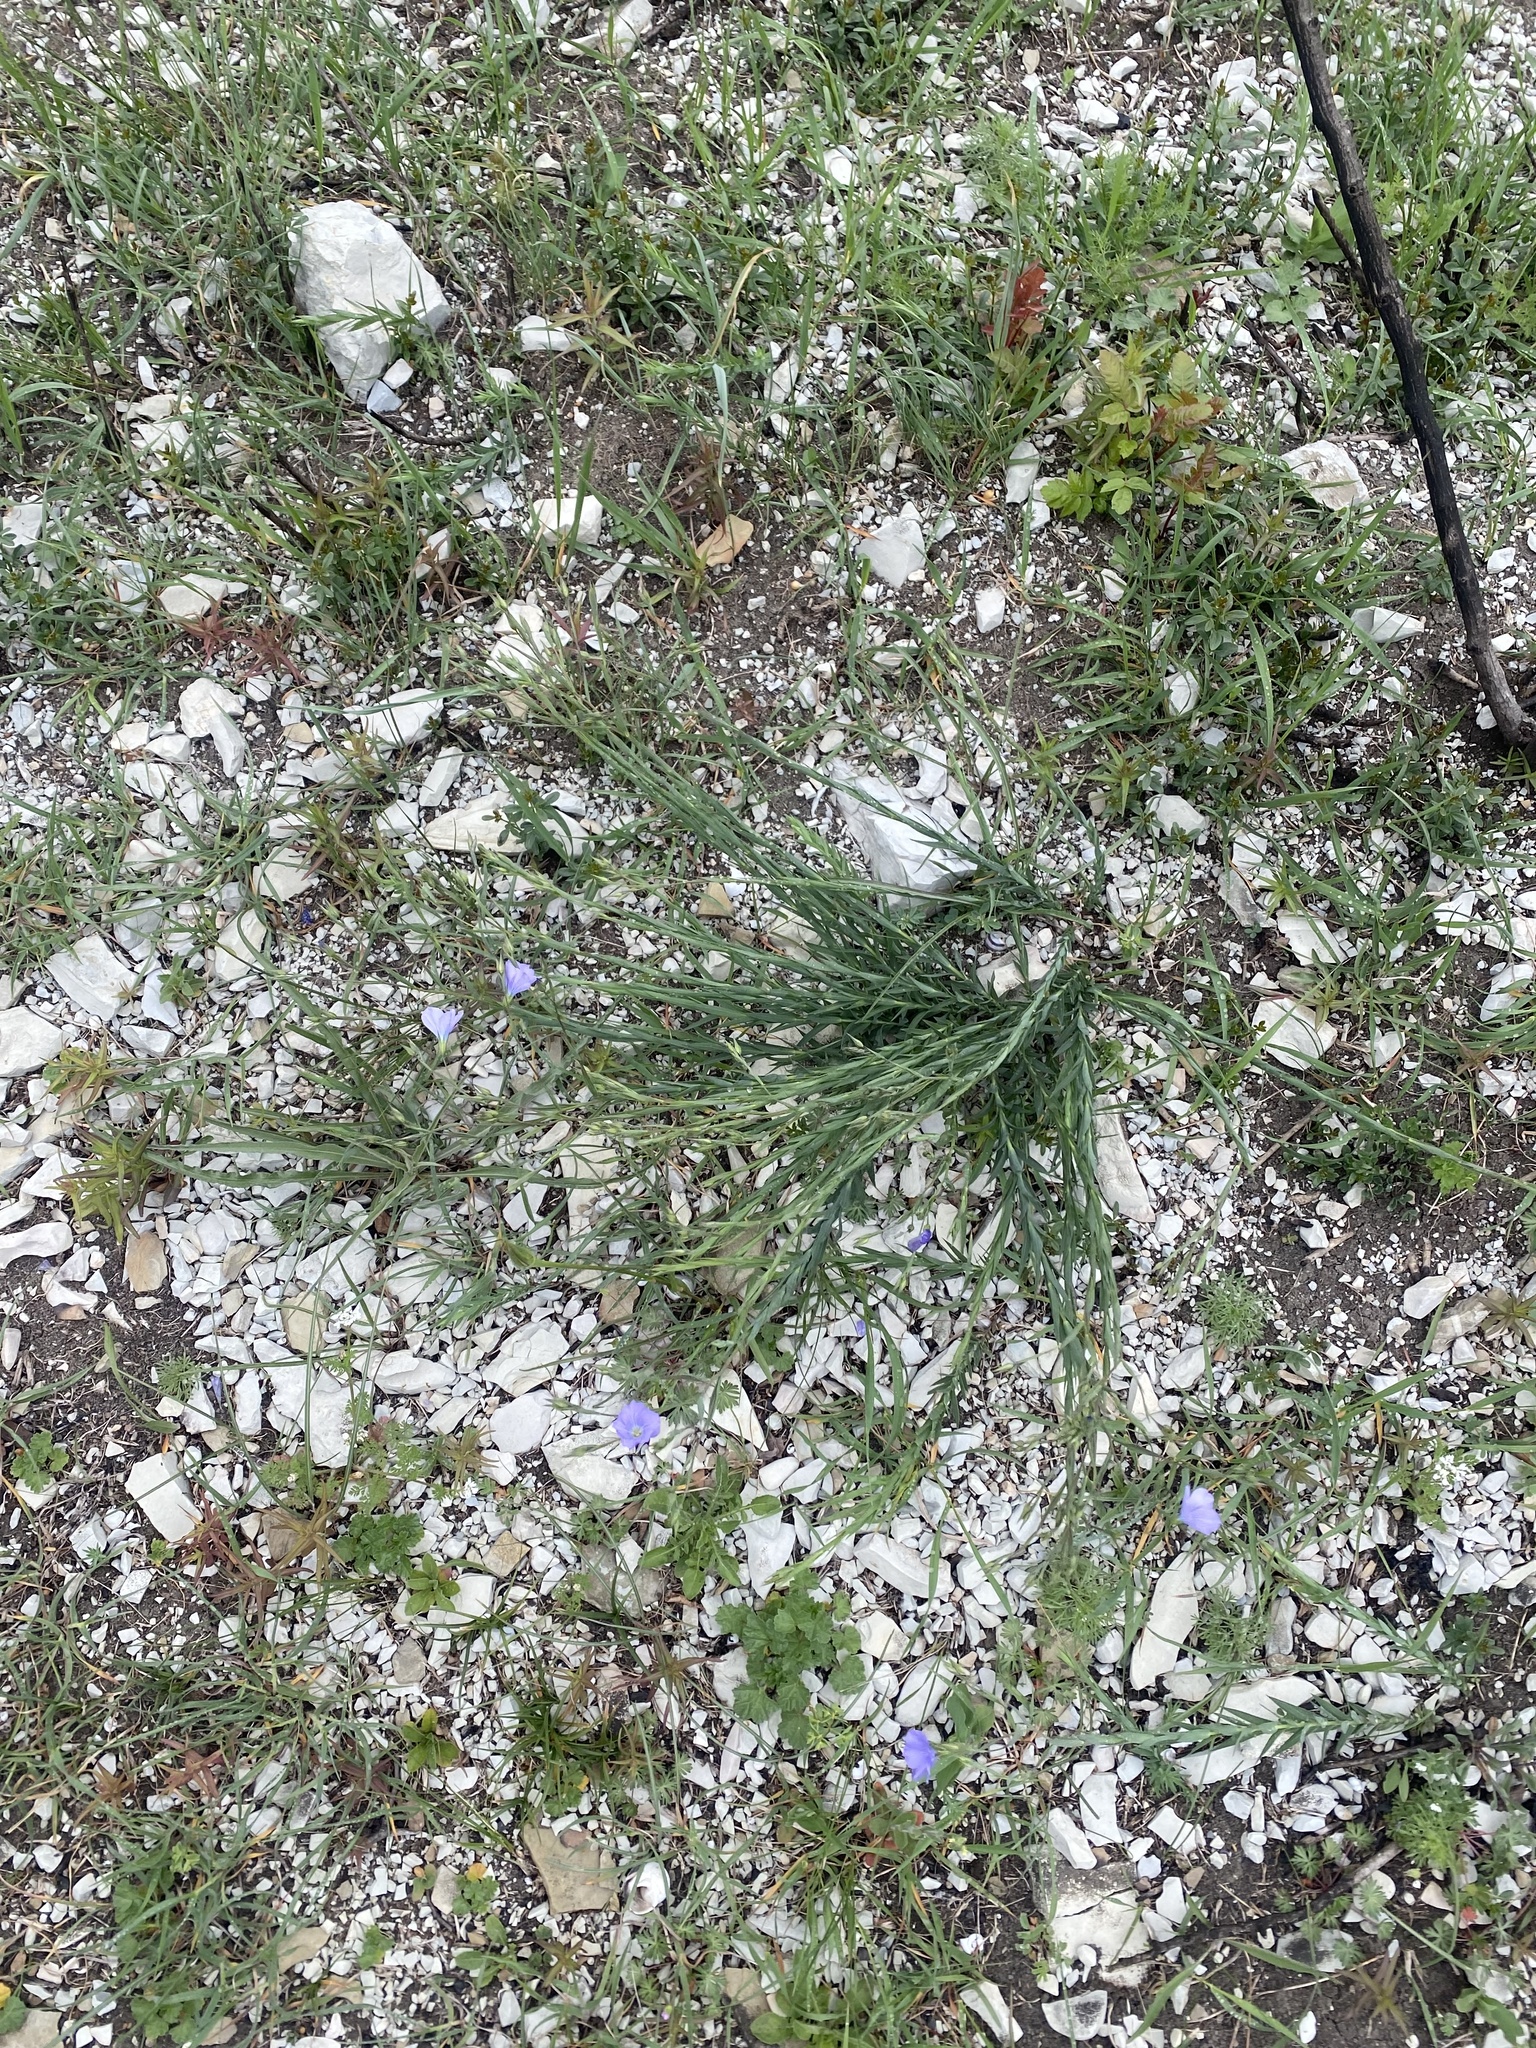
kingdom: Plantae
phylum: Tracheophyta
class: Magnoliopsida
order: Malpighiales
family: Linaceae
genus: Linum
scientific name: Linum nervosum
